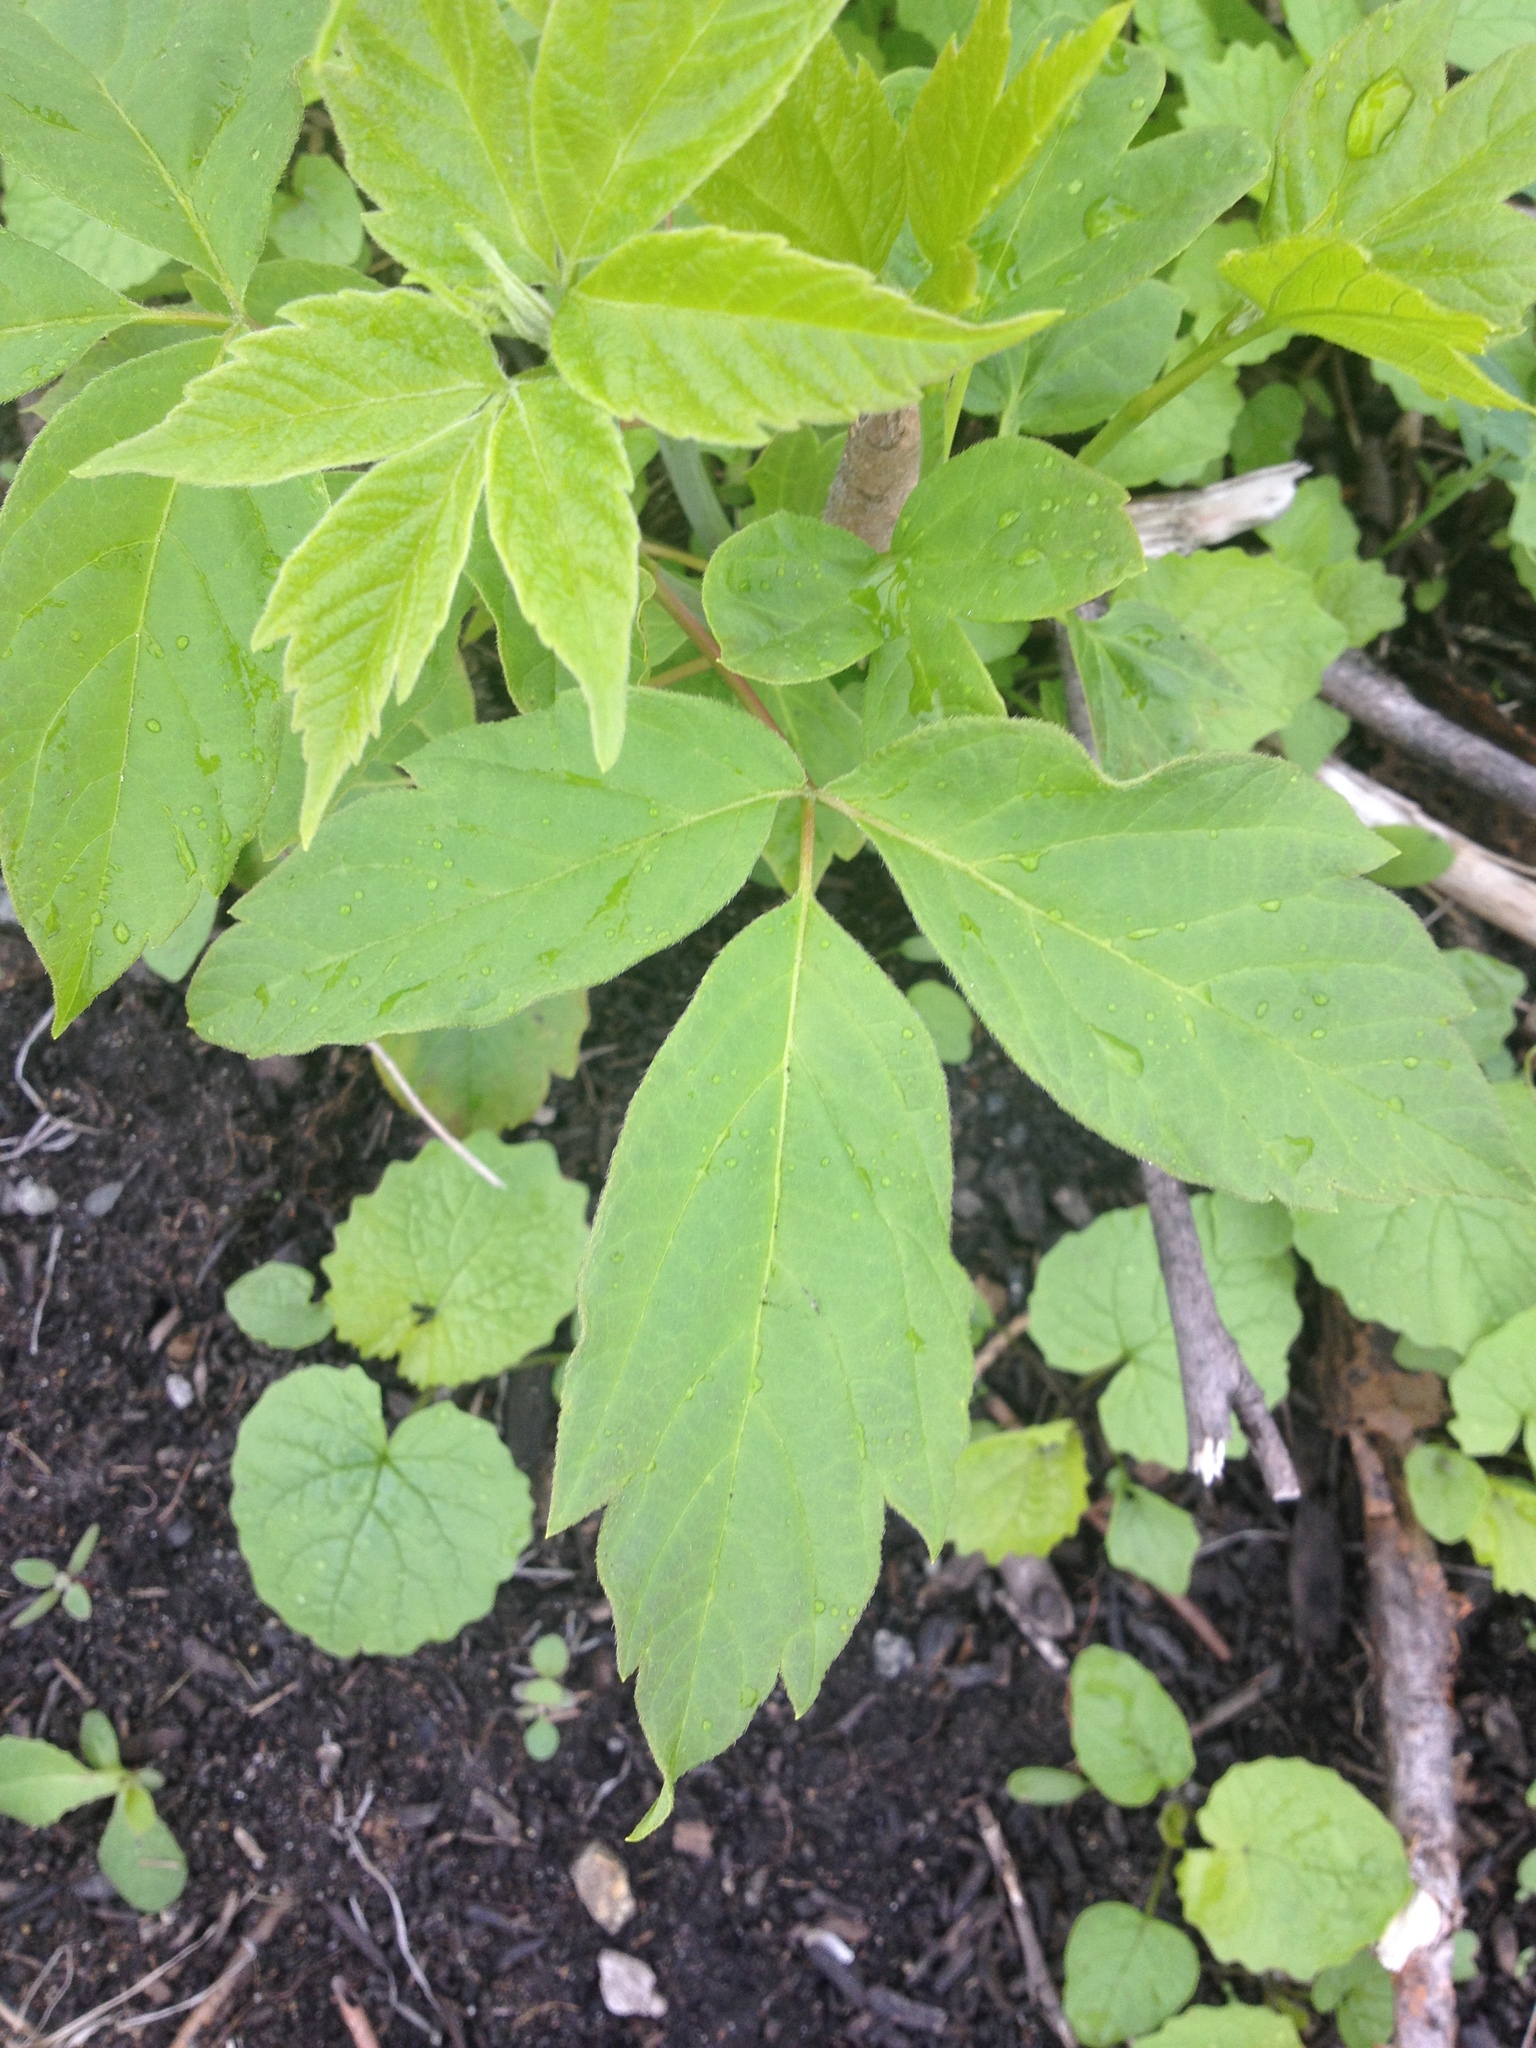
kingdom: Plantae
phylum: Tracheophyta
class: Magnoliopsida
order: Sapindales
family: Sapindaceae
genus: Acer
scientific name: Acer negundo
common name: Ashleaf maple
